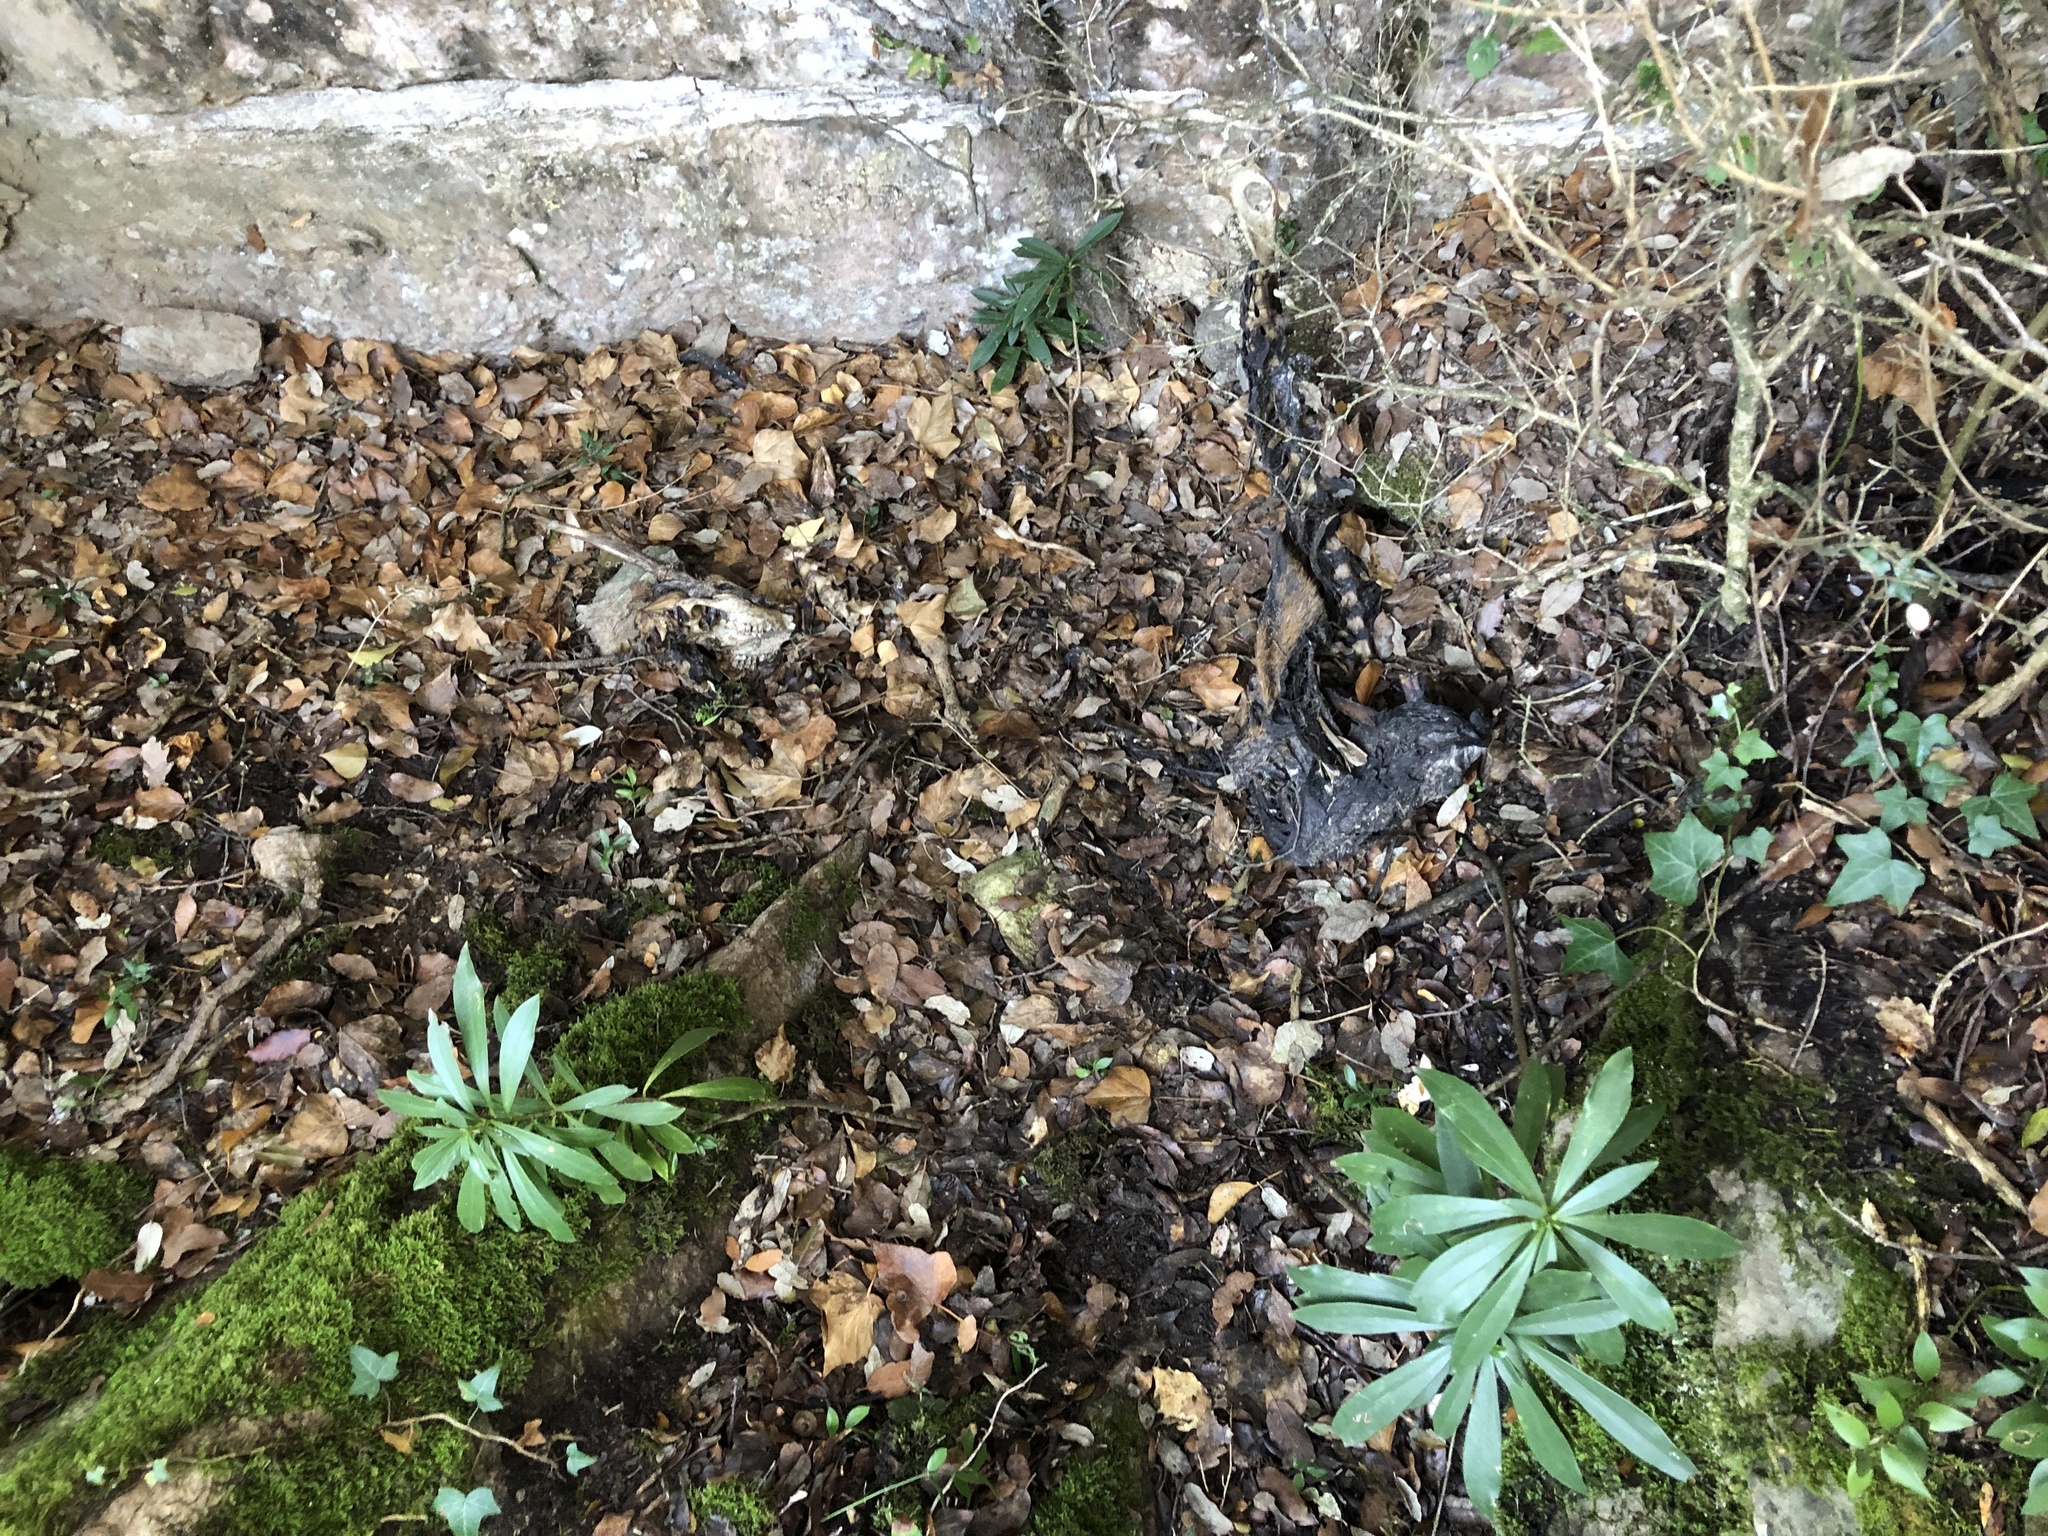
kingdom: Animalia
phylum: Chordata
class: Mammalia
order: Artiodactyla
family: Cervidae
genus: Capreolus
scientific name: Capreolus capreolus
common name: Western roe deer
